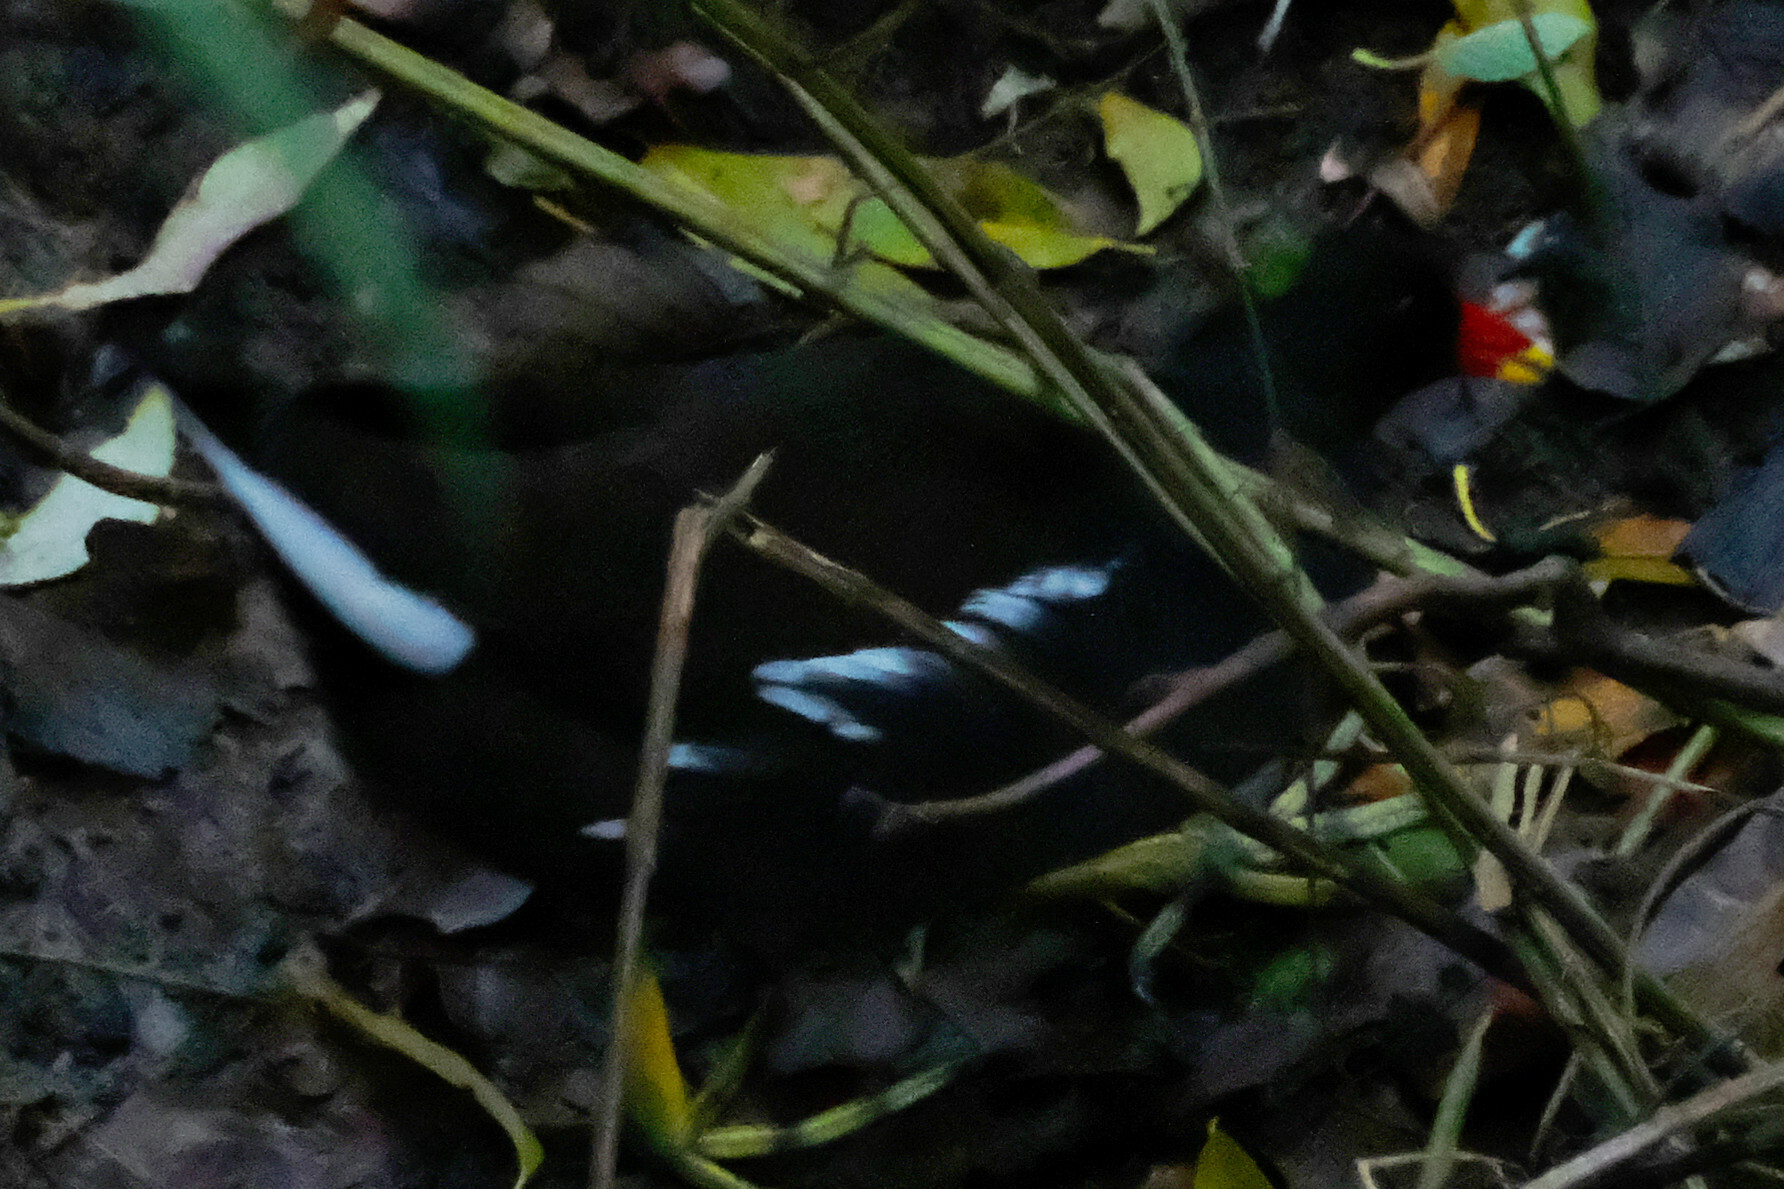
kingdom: Animalia
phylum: Chordata
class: Aves
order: Gruiformes
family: Rallidae
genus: Gallinula
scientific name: Gallinula chloropus
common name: Common moorhen
